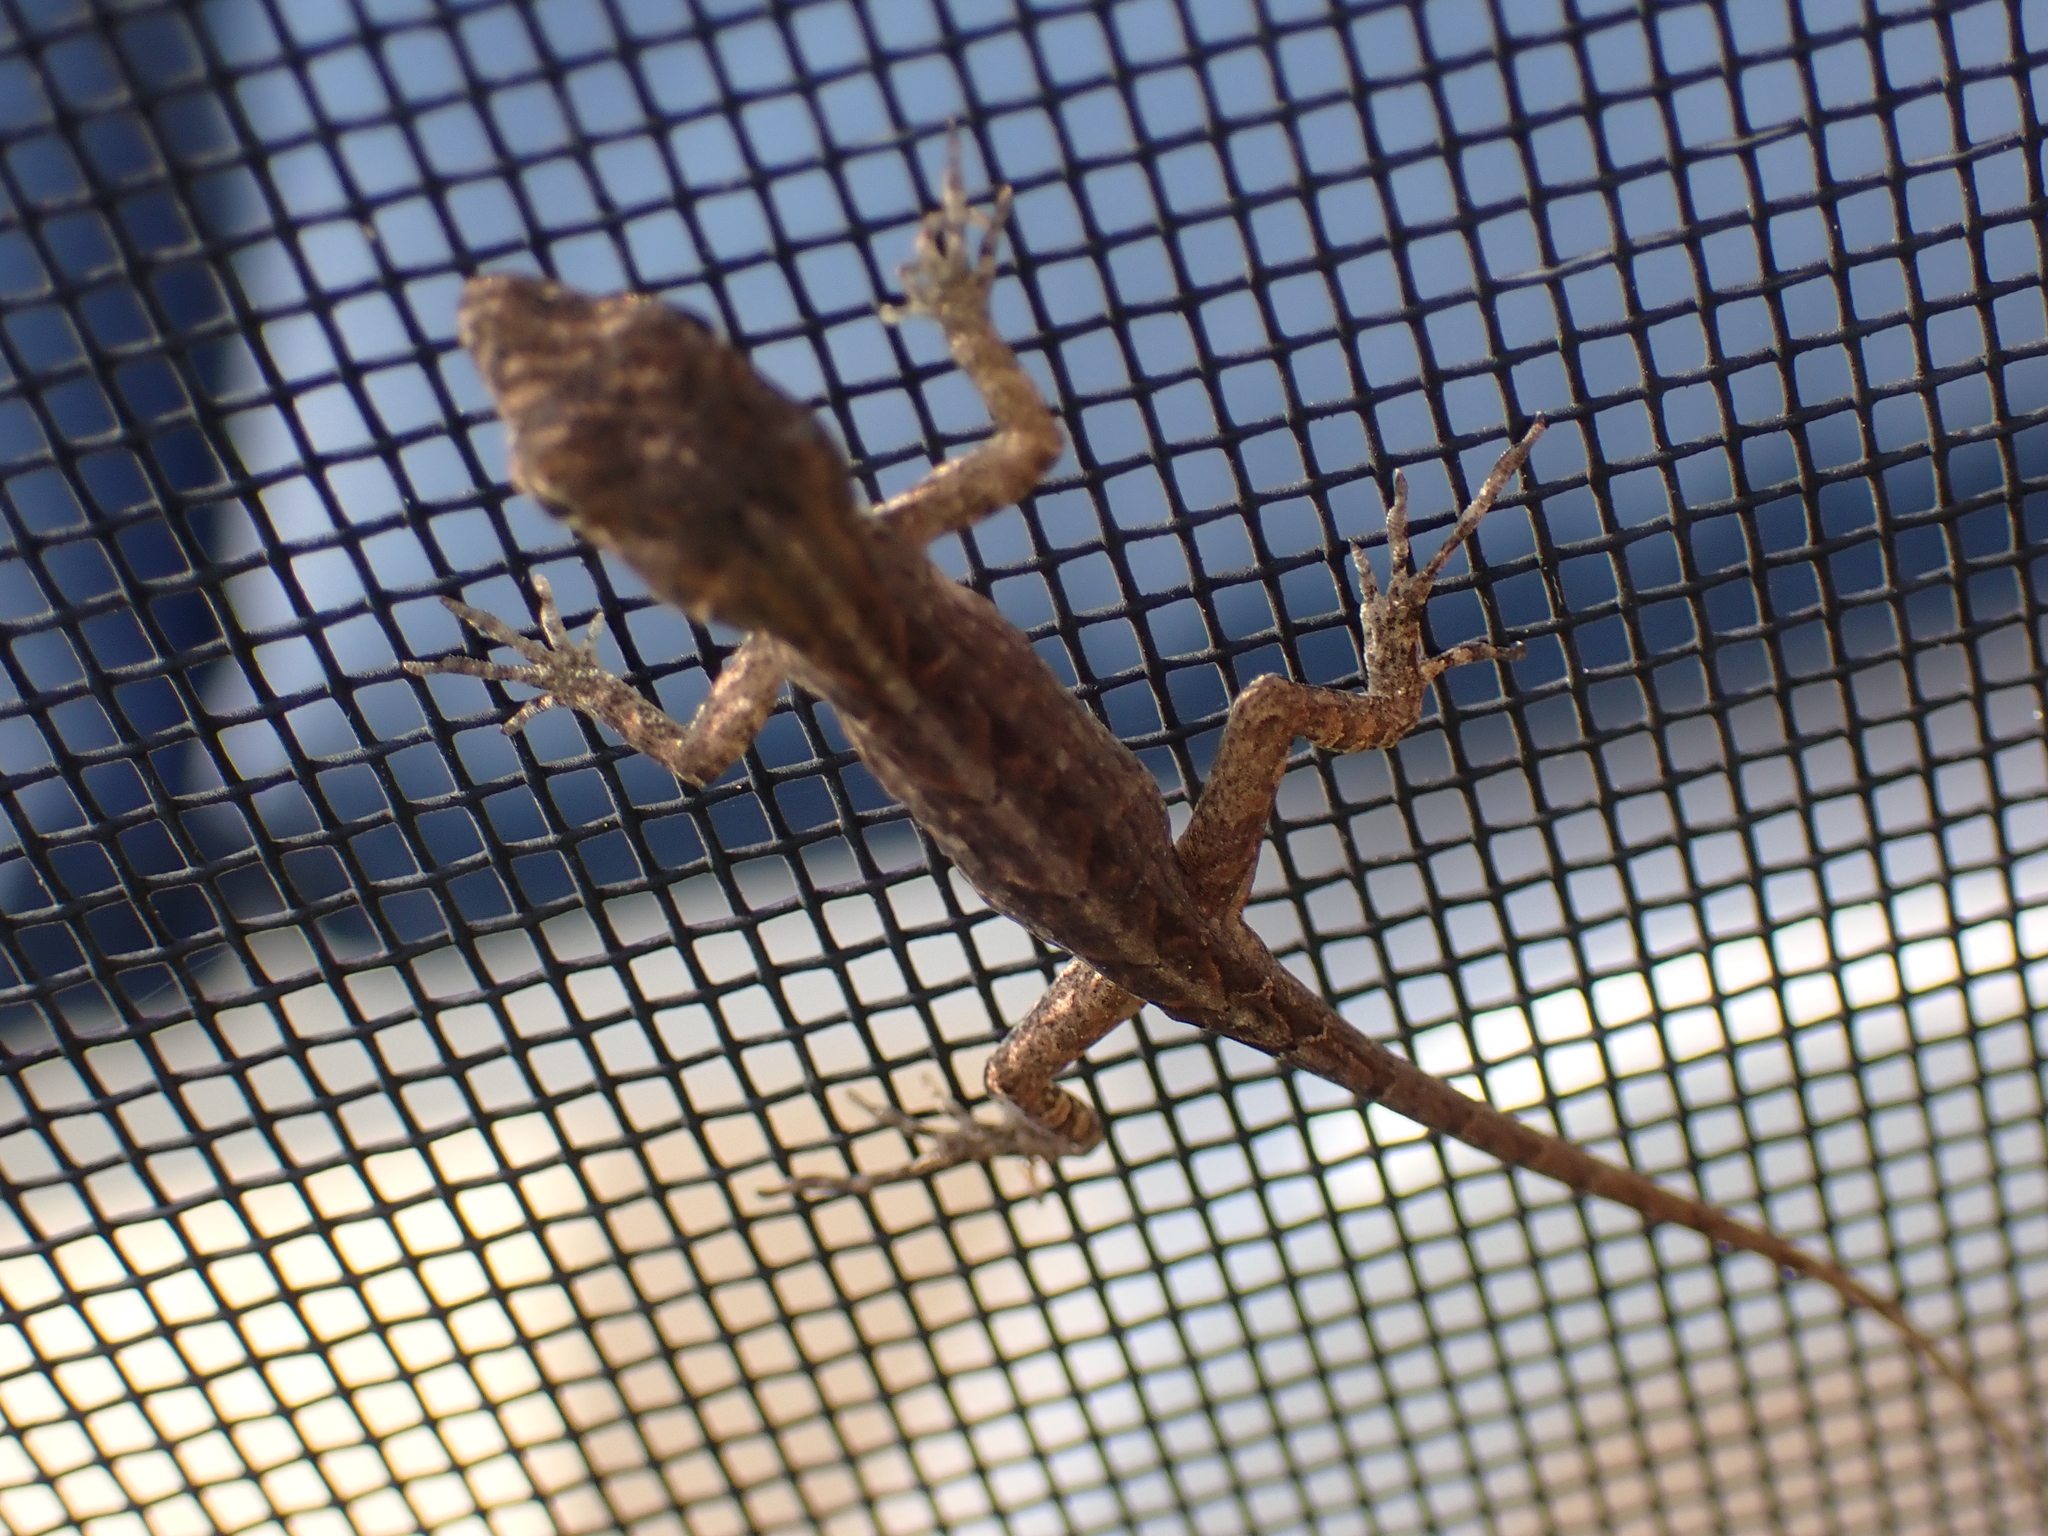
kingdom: Animalia
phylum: Chordata
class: Squamata
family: Dactyloidae
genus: Anolis
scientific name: Anolis sagrei
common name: Brown anole
